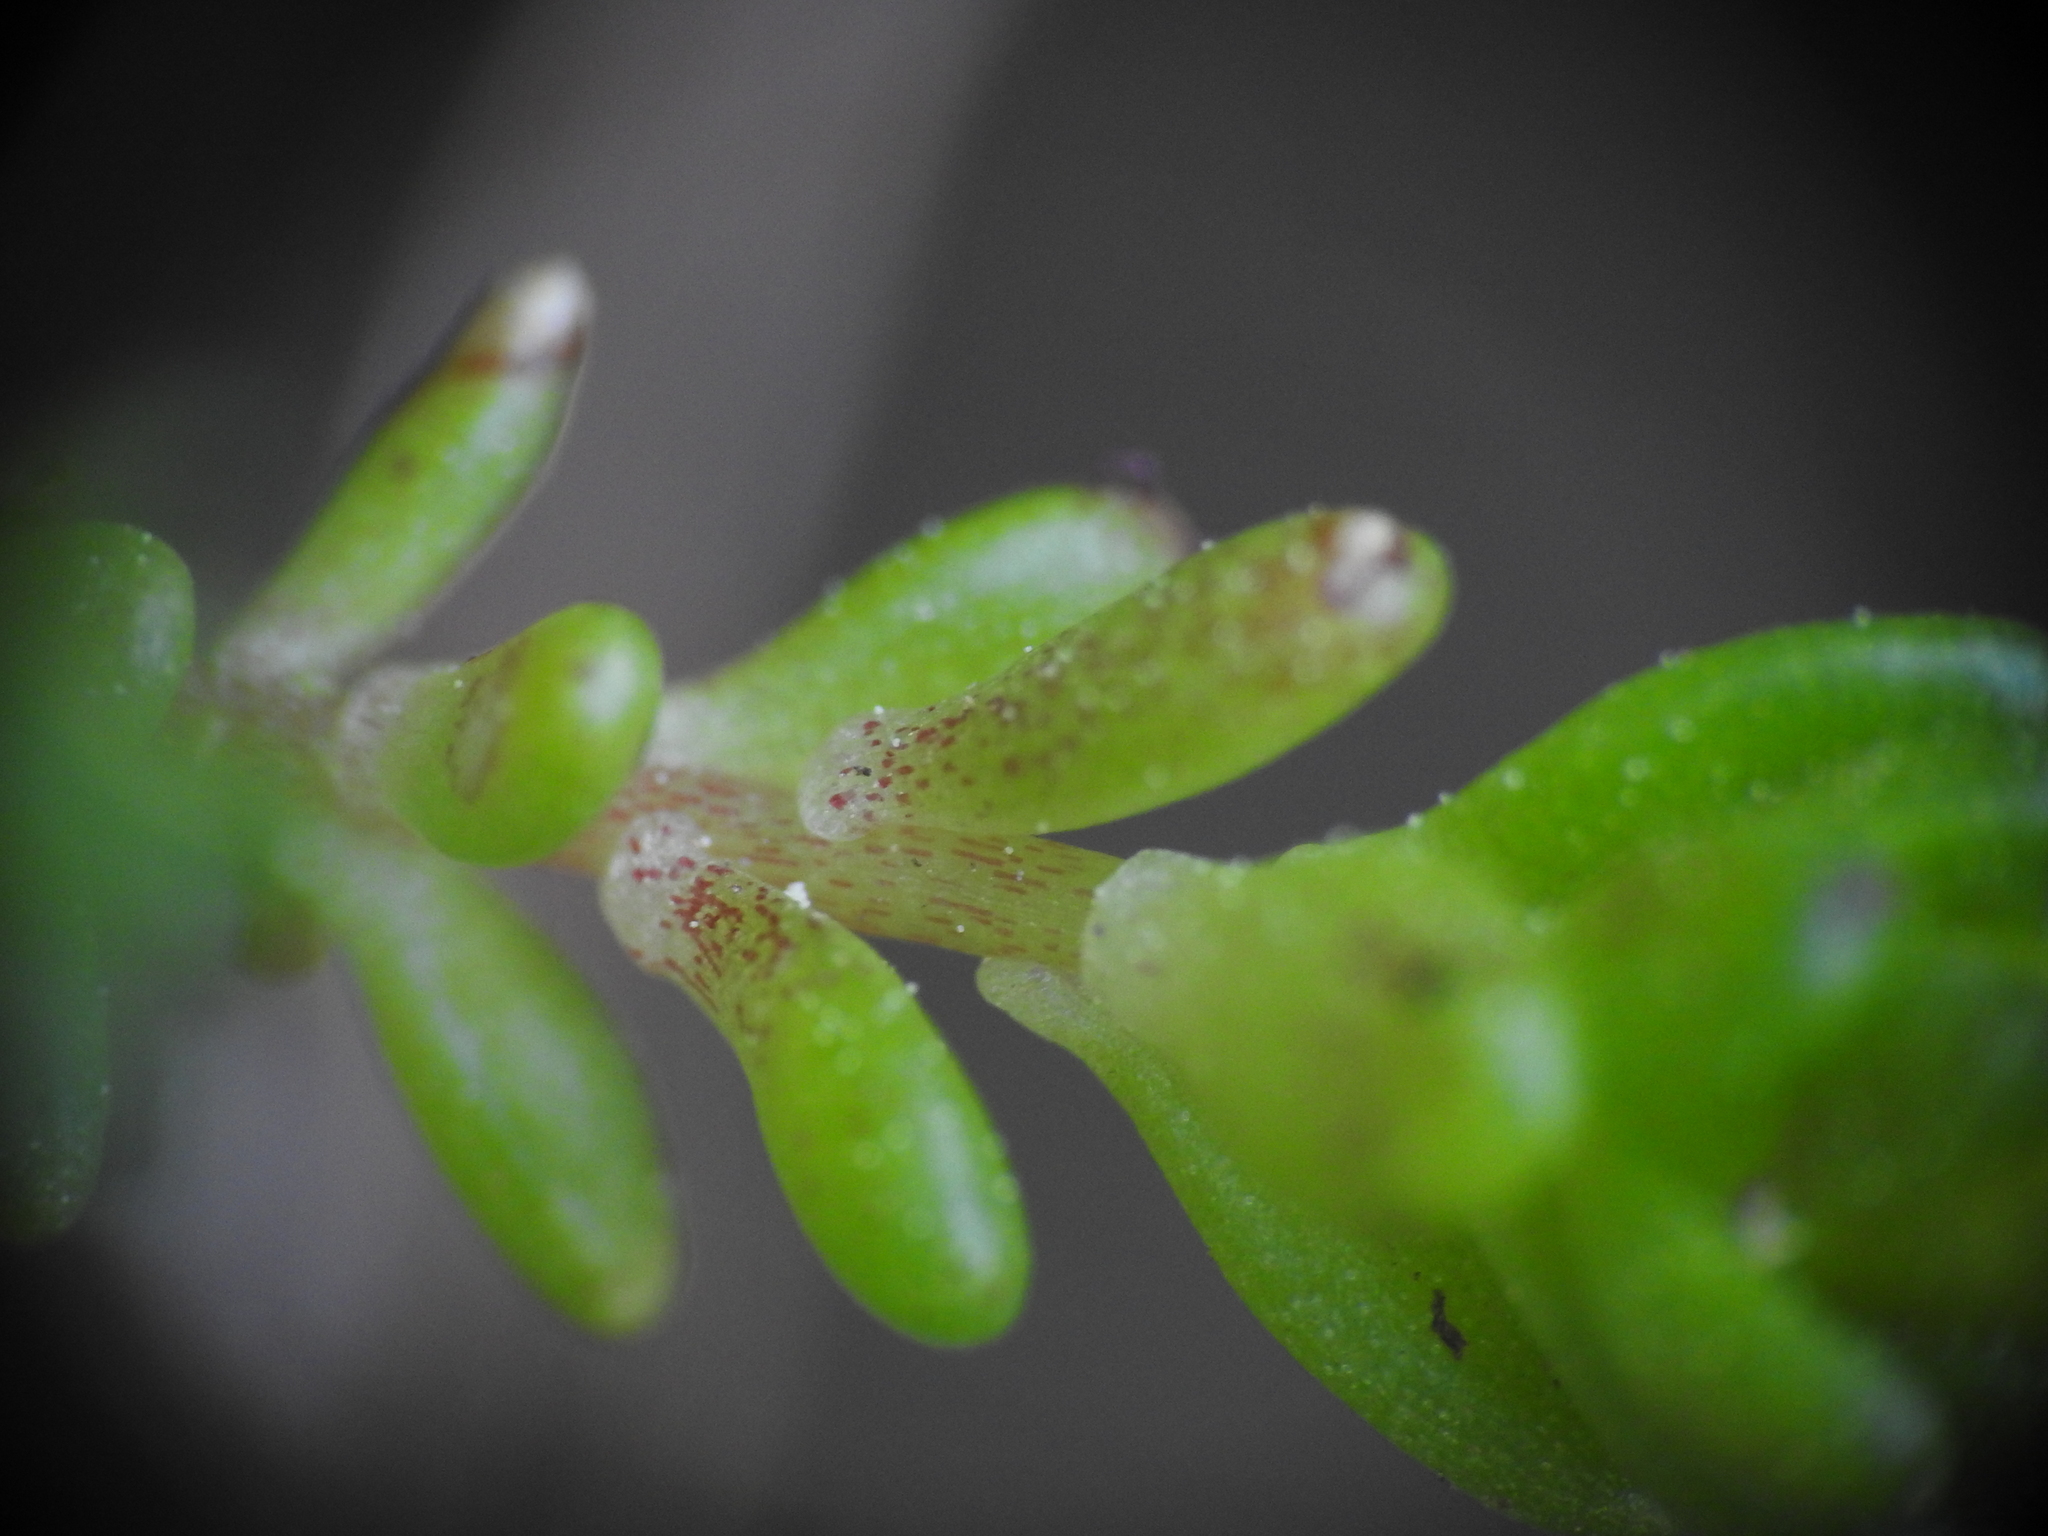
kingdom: Plantae
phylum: Tracheophyta
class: Magnoliopsida
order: Saxifragales
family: Crassulaceae
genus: Sedum
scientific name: Sedum alpestre
